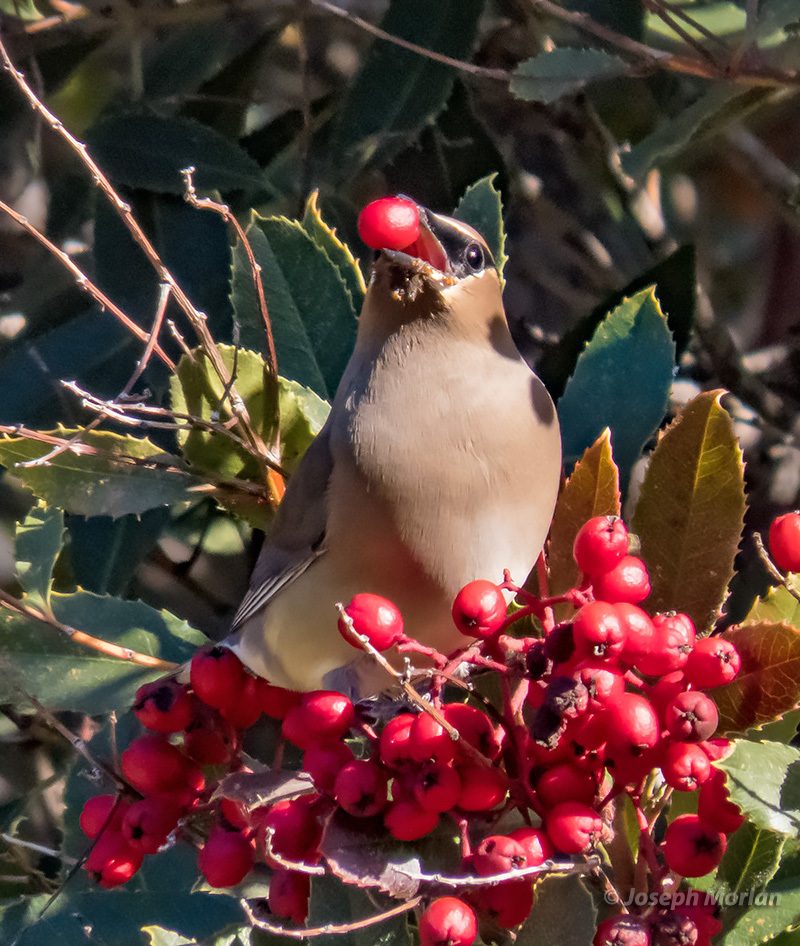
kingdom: Animalia
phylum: Chordata
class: Aves
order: Passeriformes
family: Bombycillidae
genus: Bombycilla
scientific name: Bombycilla cedrorum
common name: Cedar waxwing
